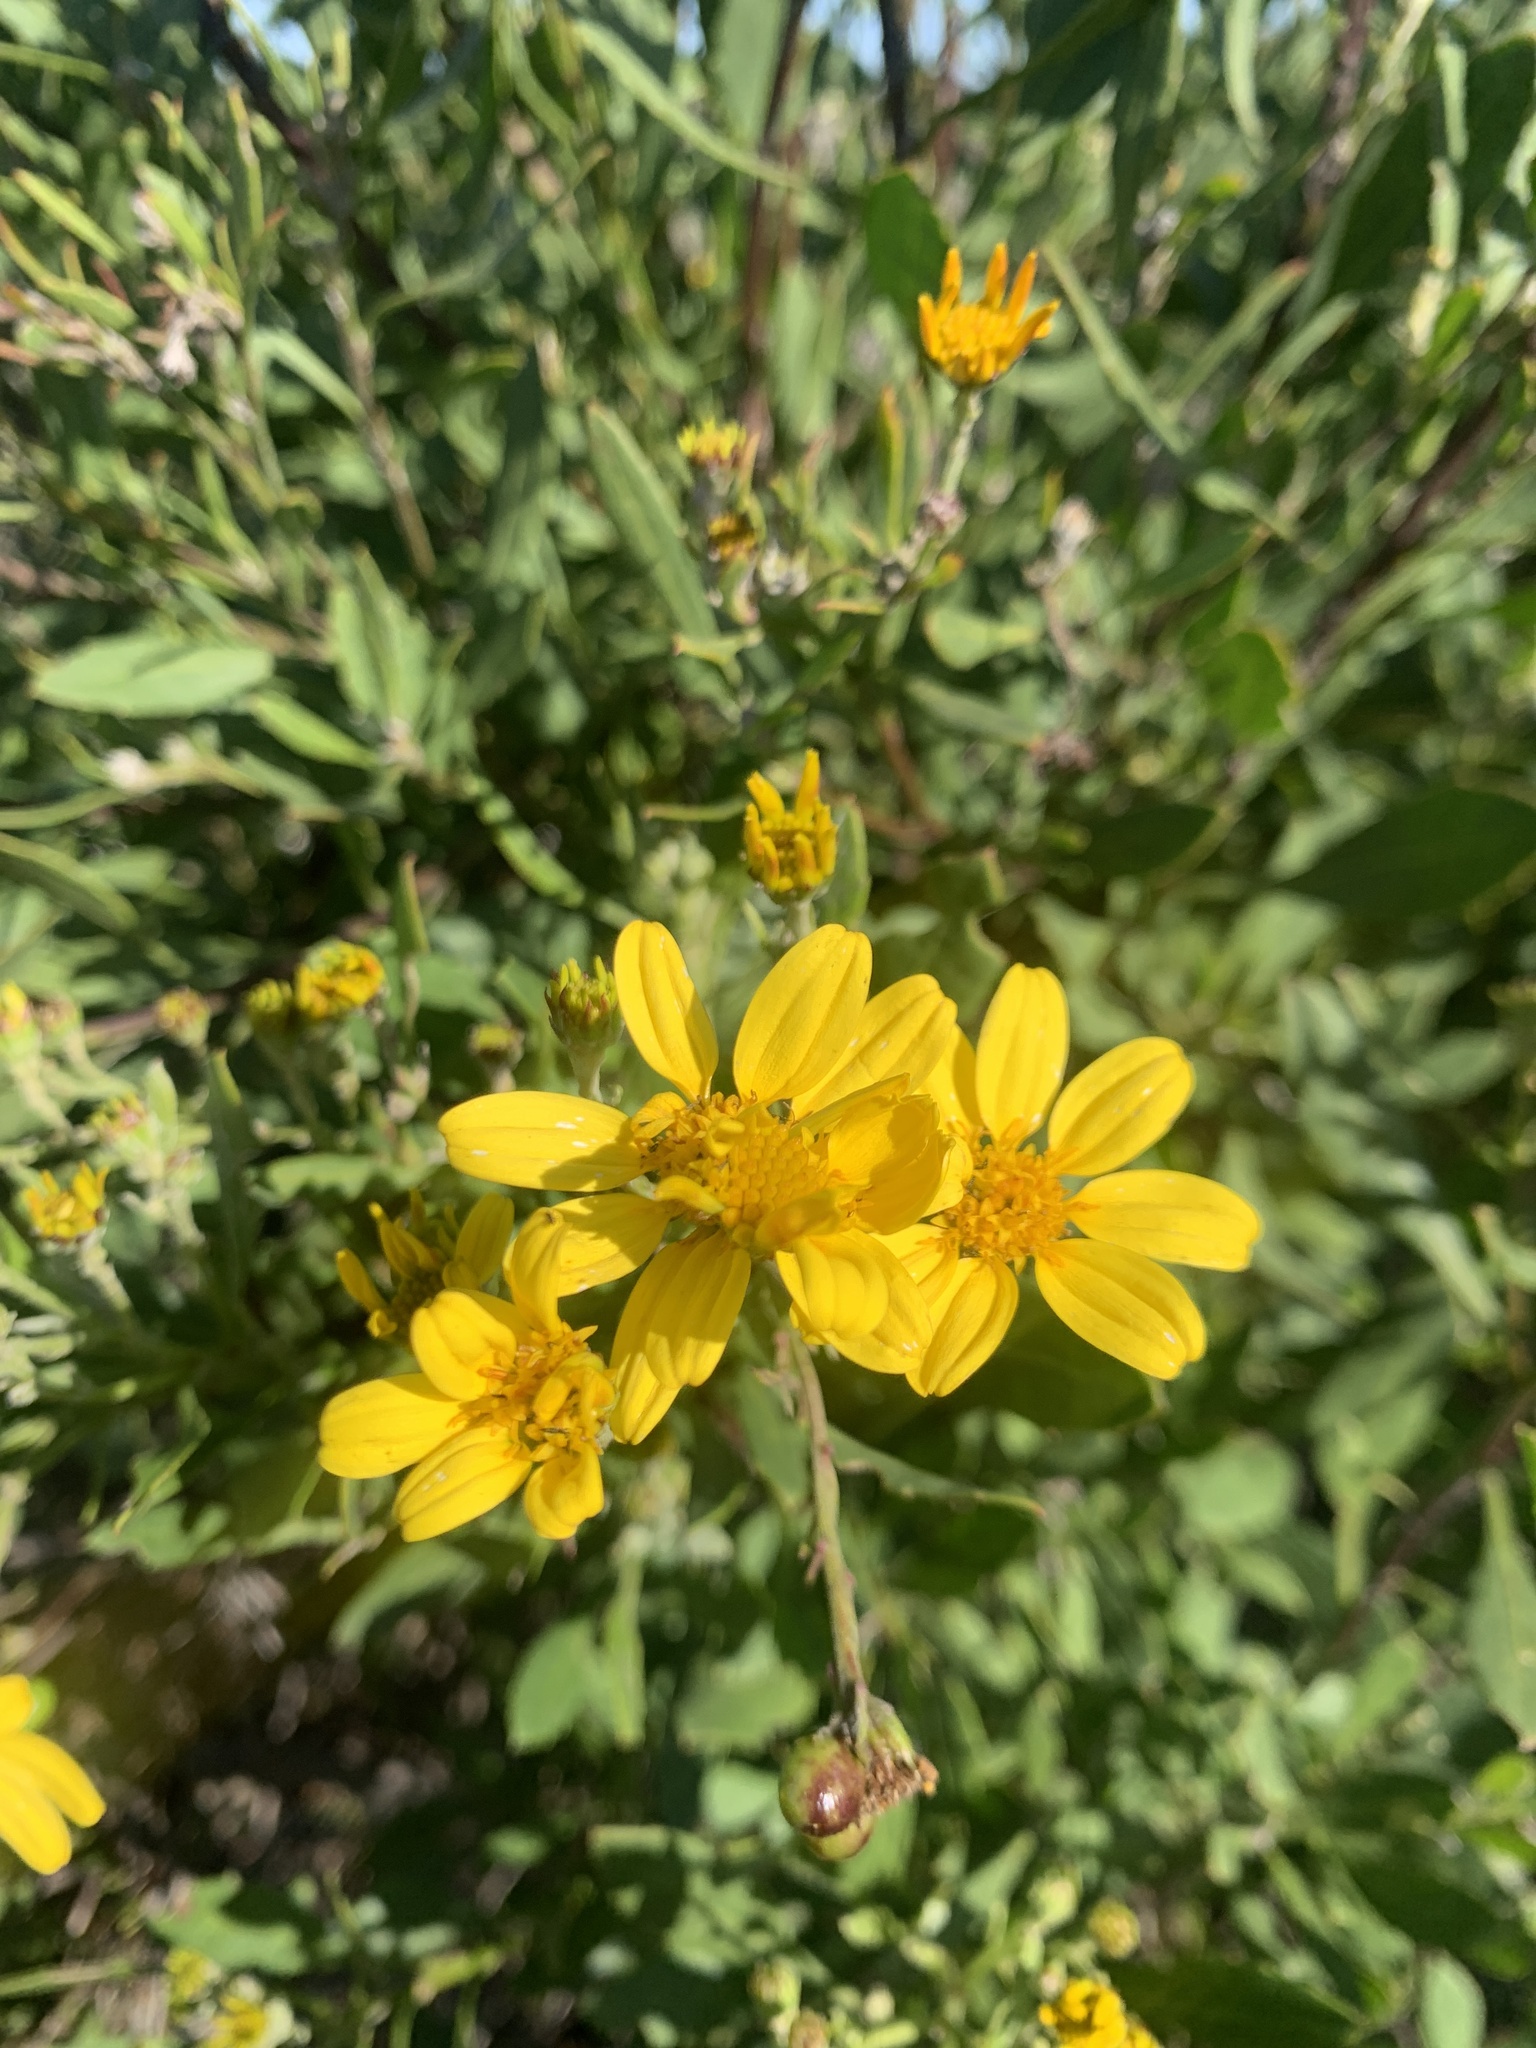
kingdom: Plantae
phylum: Tracheophyta
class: Magnoliopsida
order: Asterales
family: Asteraceae
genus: Osteospermum
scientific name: Osteospermum moniliferum
